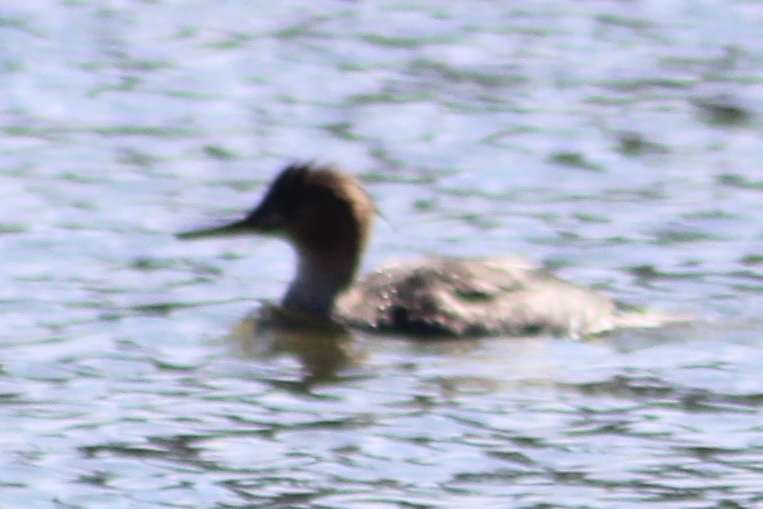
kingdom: Animalia
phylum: Chordata
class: Aves
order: Anseriformes
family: Anatidae
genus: Mergus
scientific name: Mergus serrator
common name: Red-breasted merganser
